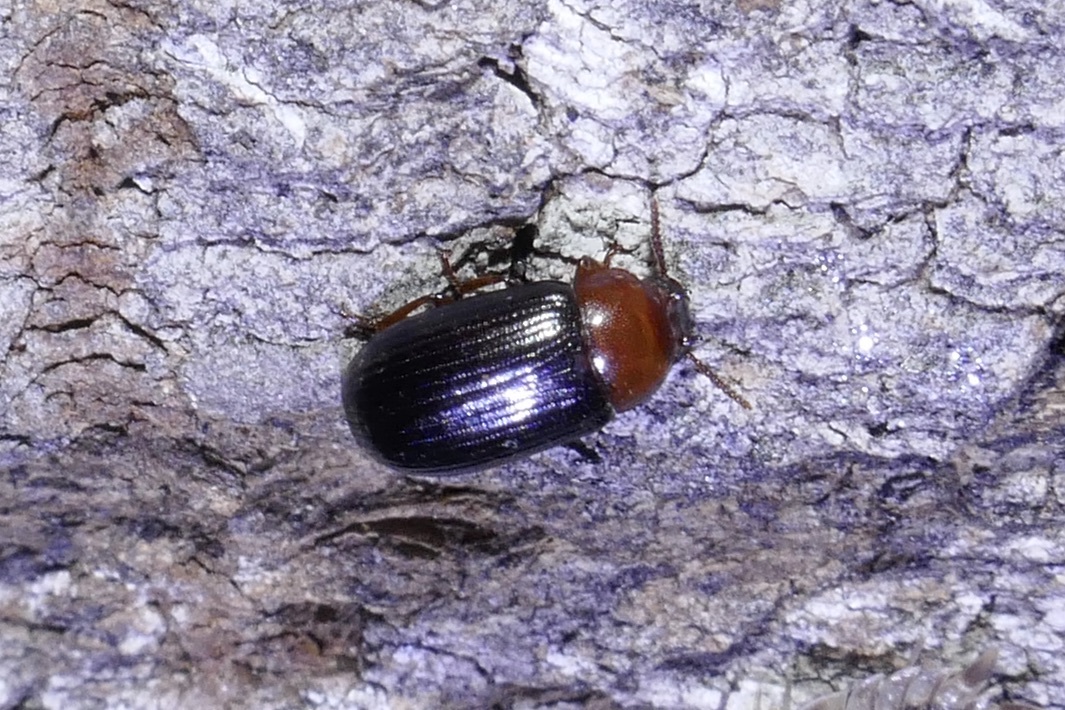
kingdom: Animalia
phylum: Arthropoda
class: Insecta
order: Coleoptera
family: Tenebrionidae
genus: Neomida
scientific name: Neomida haemorrhoidalis
